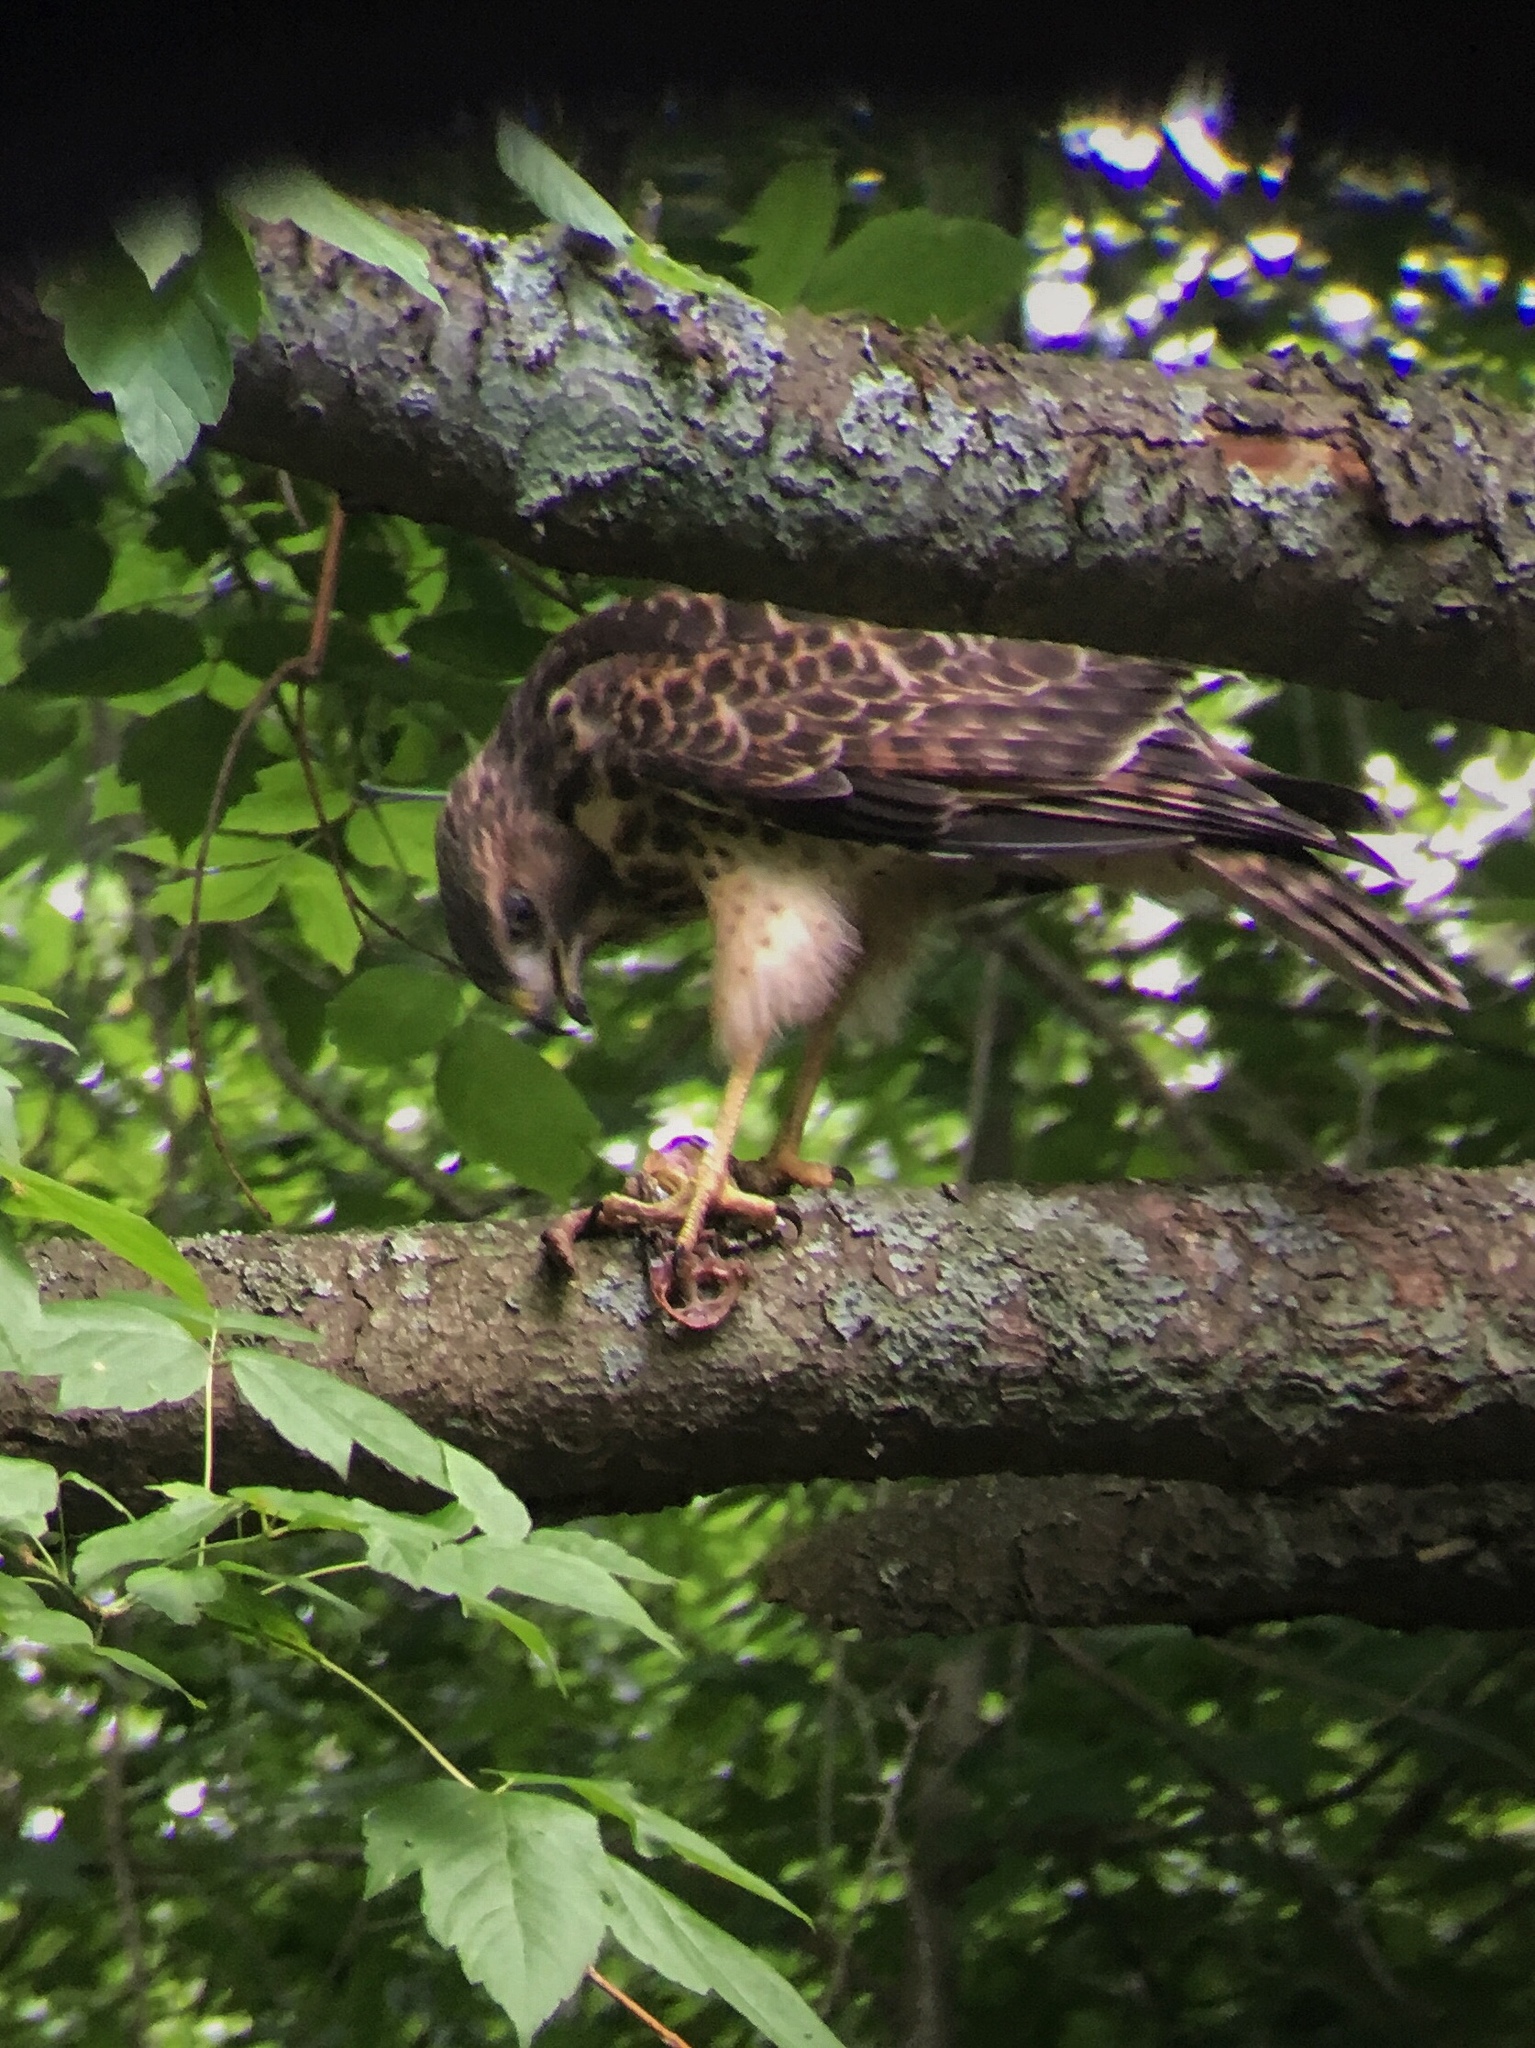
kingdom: Animalia
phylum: Chordata
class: Aves
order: Accipitriformes
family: Accipitridae
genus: Buteo
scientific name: Buteo lineatus
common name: Red-shouldered hawk
